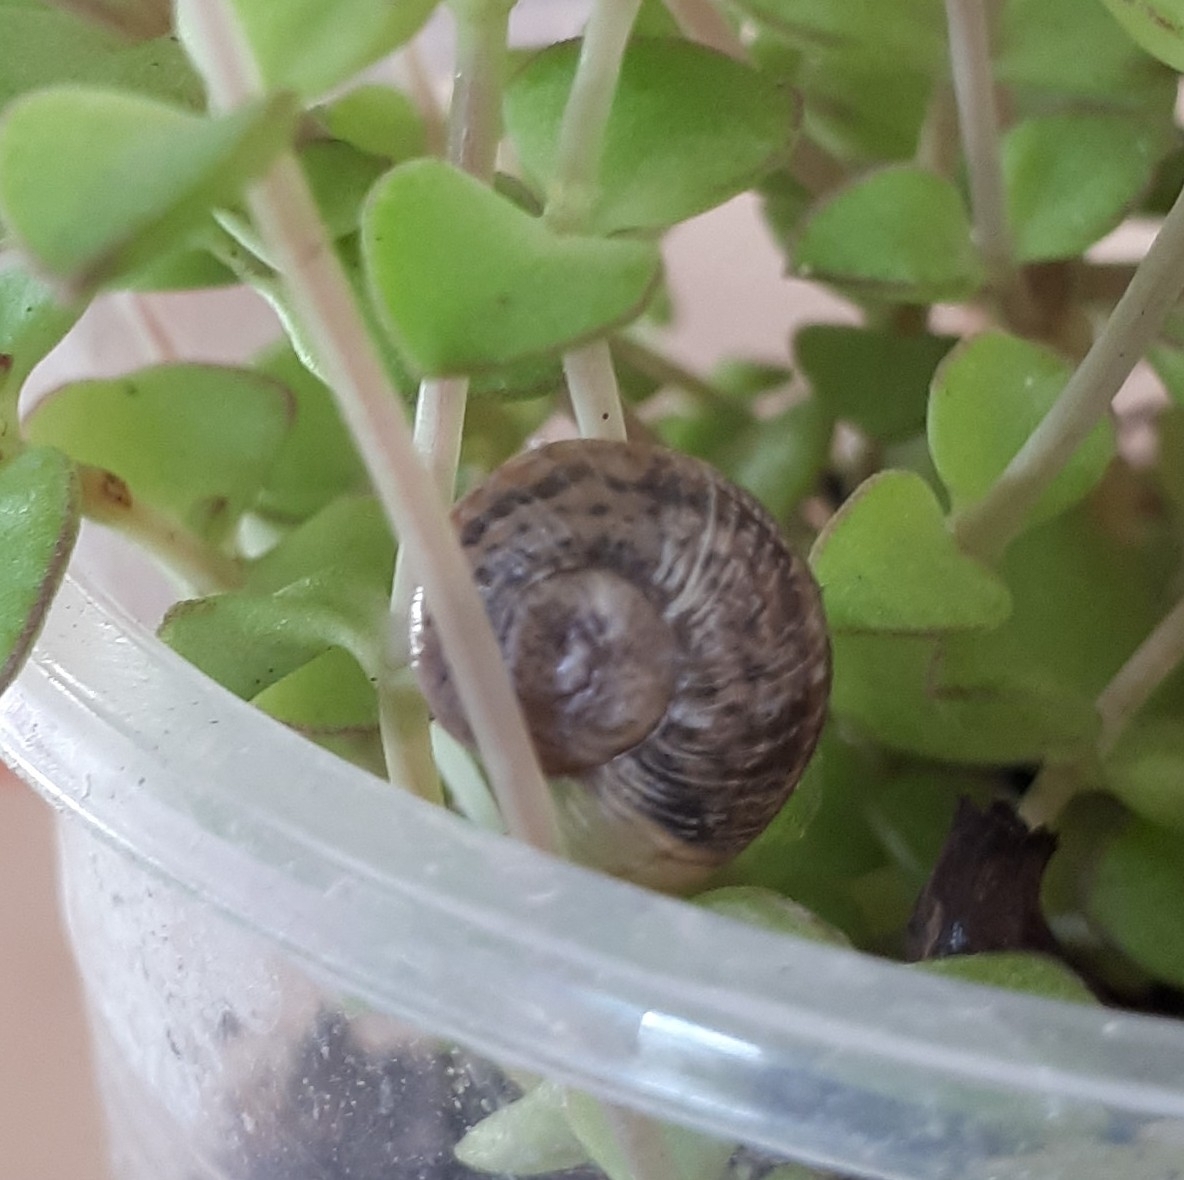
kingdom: Animalia
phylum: Mollusca
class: Gastropoda
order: Stylommatophora
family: Helicidae
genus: Cornu
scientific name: Cornu aspersum
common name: Brown garden snail
